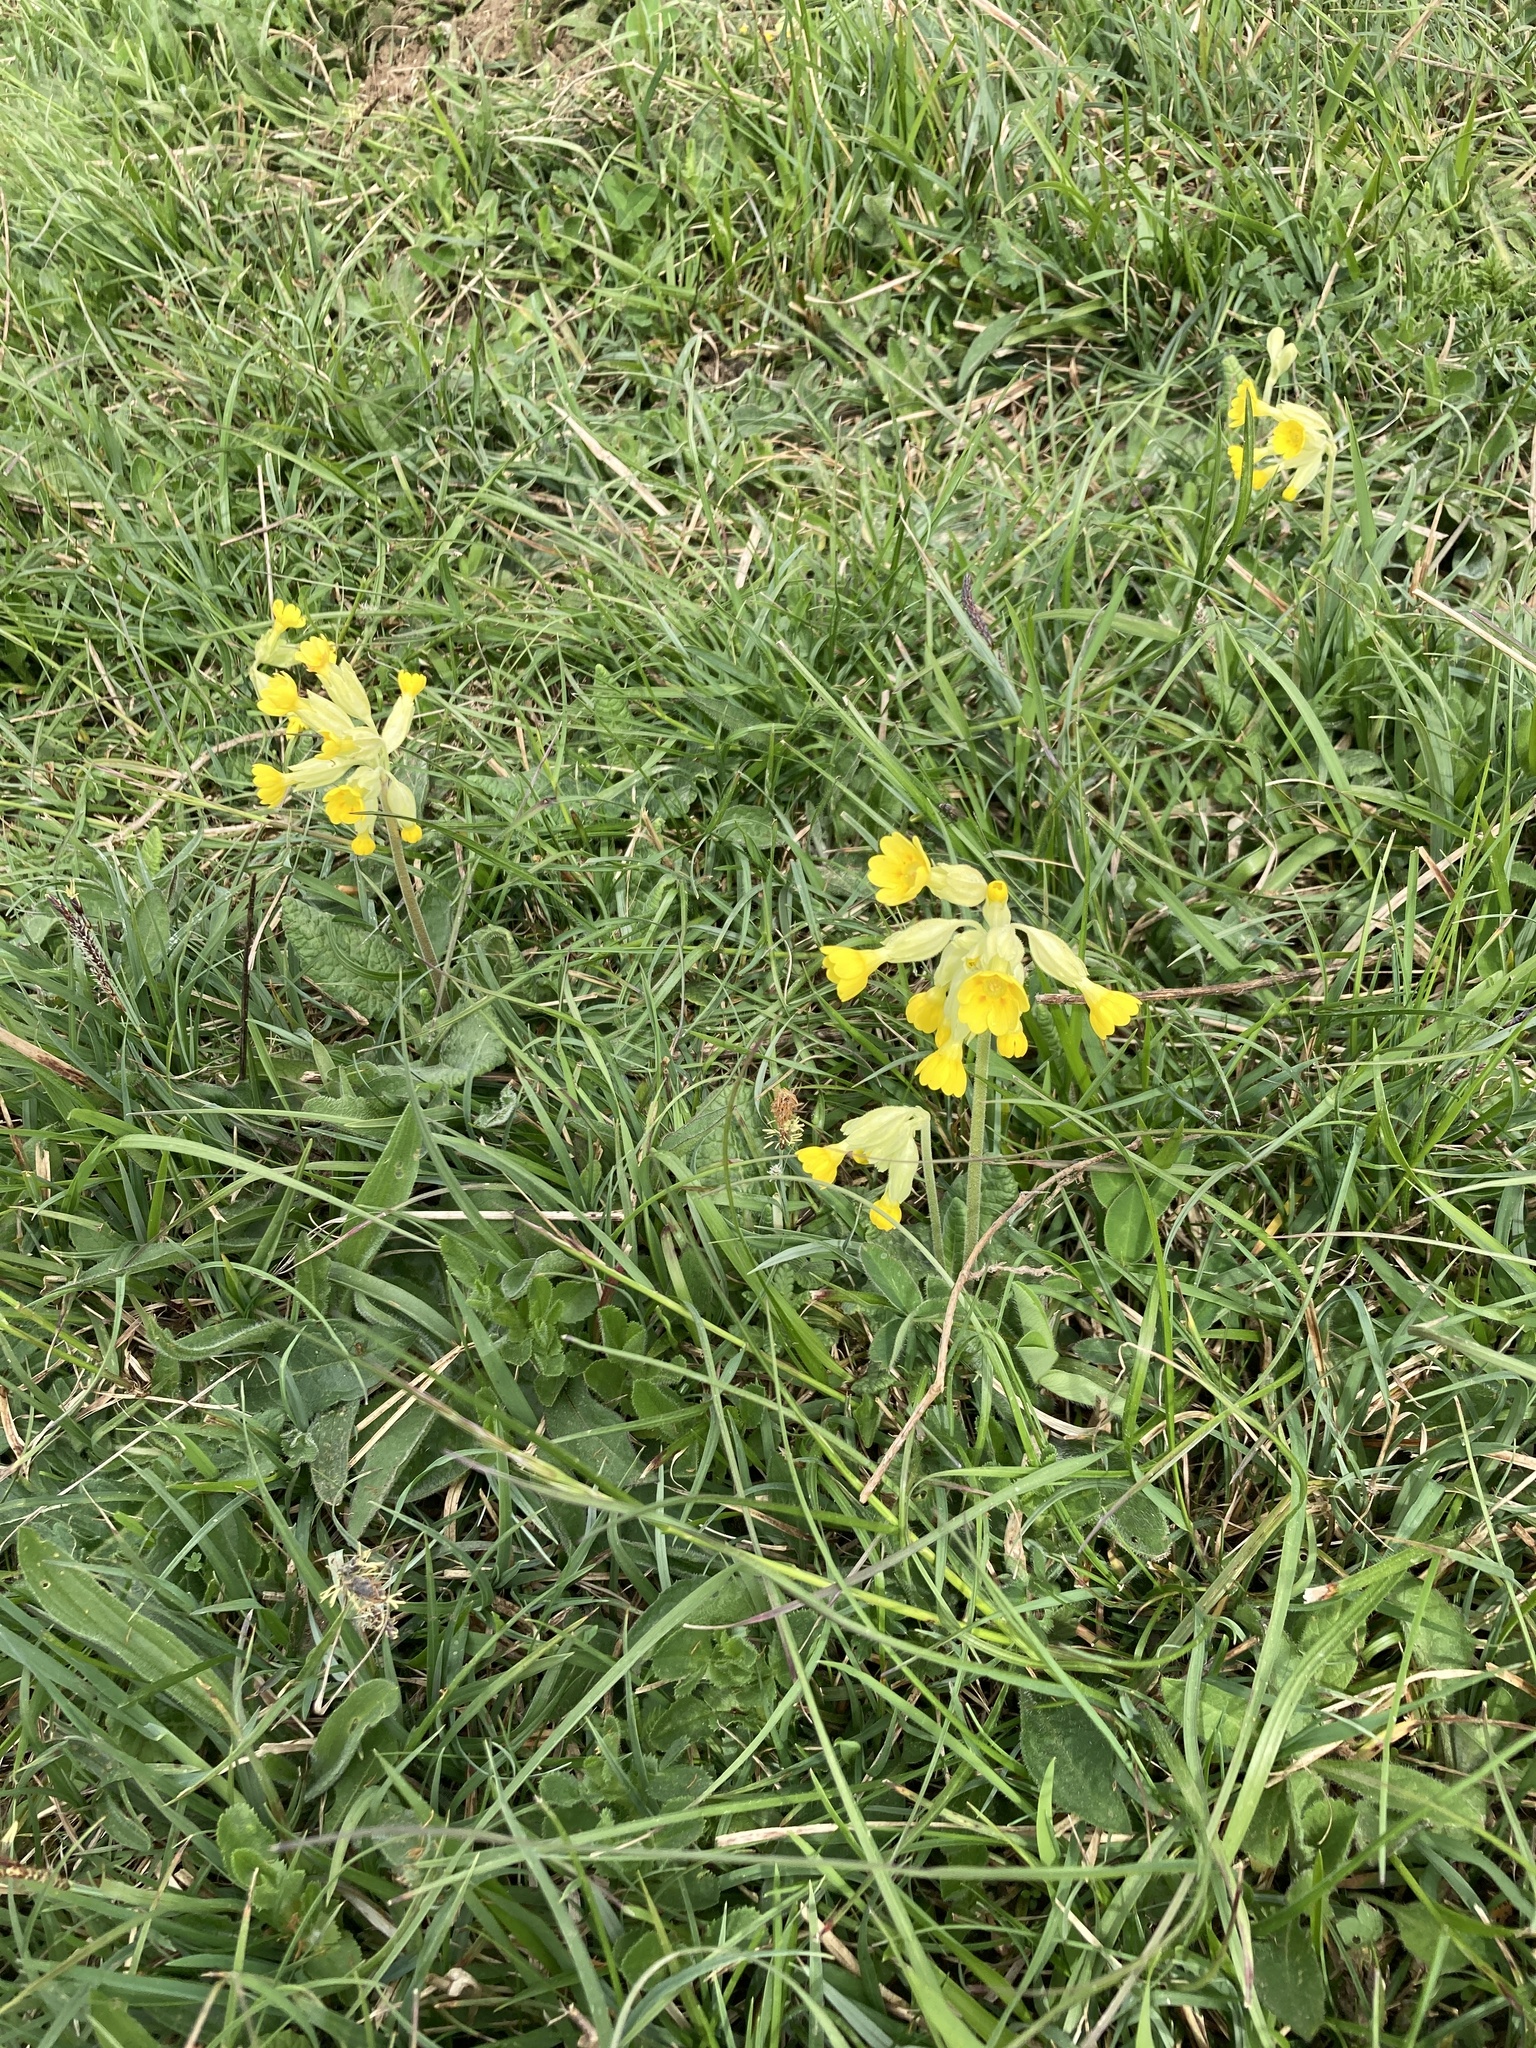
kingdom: Plantae
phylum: Tracheophyta
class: Magnoliopsida
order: Ericales
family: Primulaceae
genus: Primula
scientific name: Primula veris
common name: Cowslip
